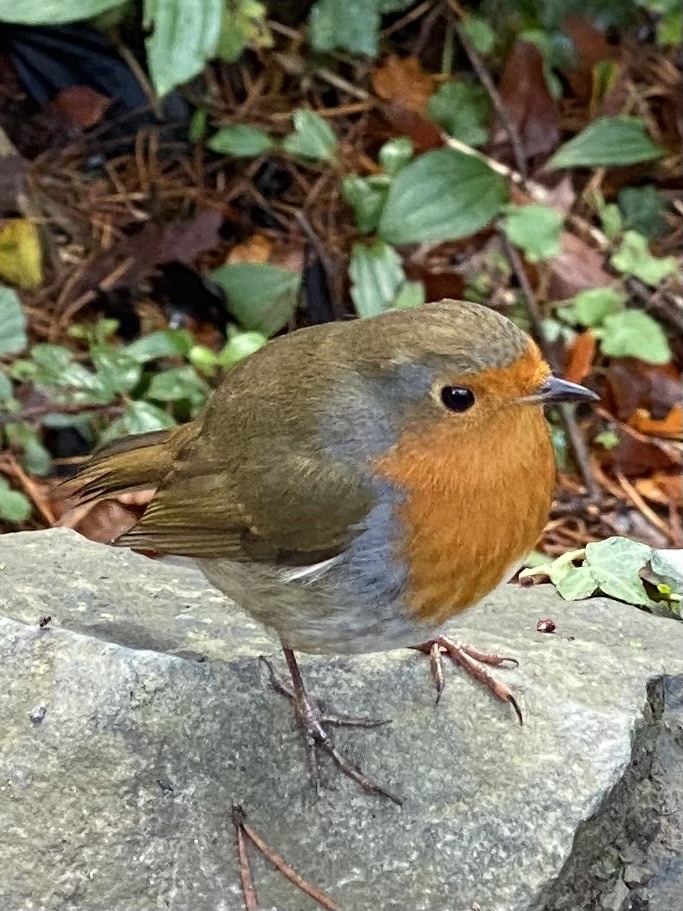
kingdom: Animalia
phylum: Chordata
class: Aves
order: Passeriformes
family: Muscicapidae
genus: Erithacus
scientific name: Erithacus rubecula
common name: European robin
